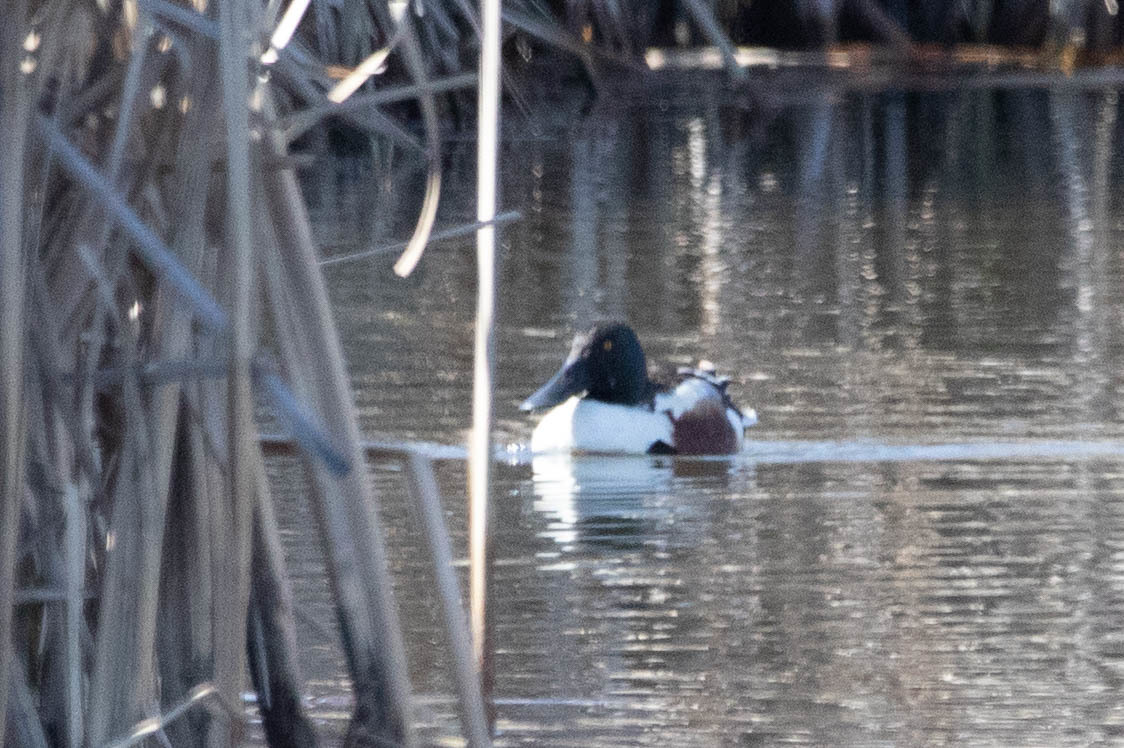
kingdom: Animalia
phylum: Chordata
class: Aves
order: Anseriformes
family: Anatidae
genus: Spatula
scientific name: Spatula clypeata
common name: Northern shoveler
